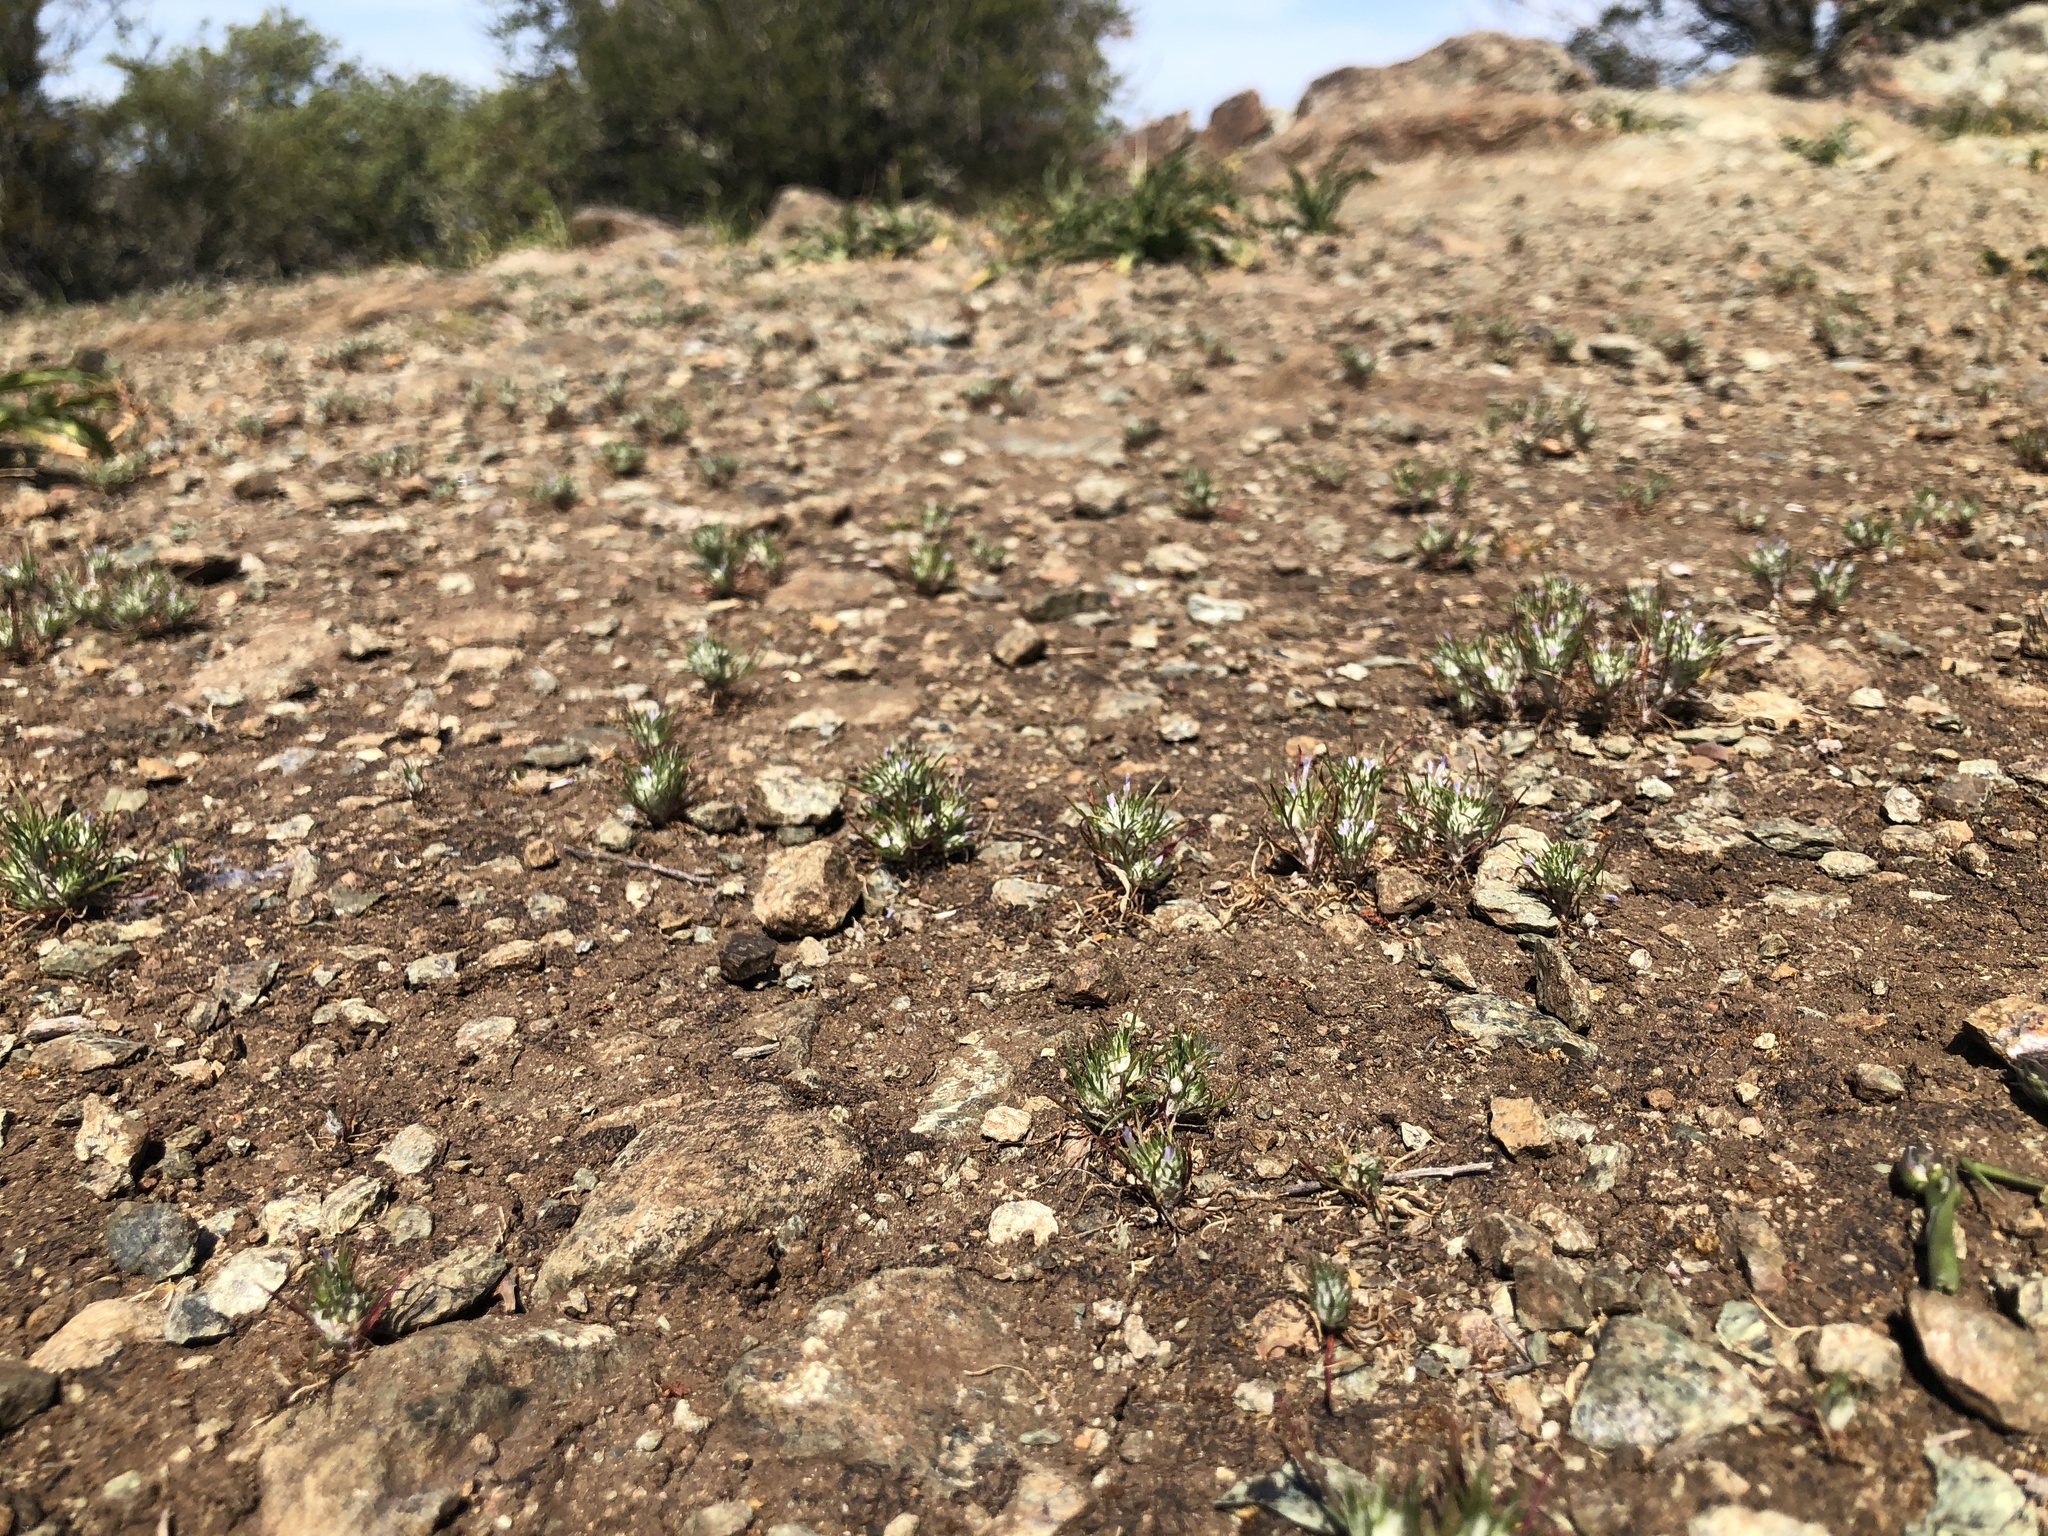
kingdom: Plantae
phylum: Tracheophyta
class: Magnoliopsida
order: Ericales
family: Polemoniaceae
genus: Eriastrum
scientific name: Eriastrum abramsii
